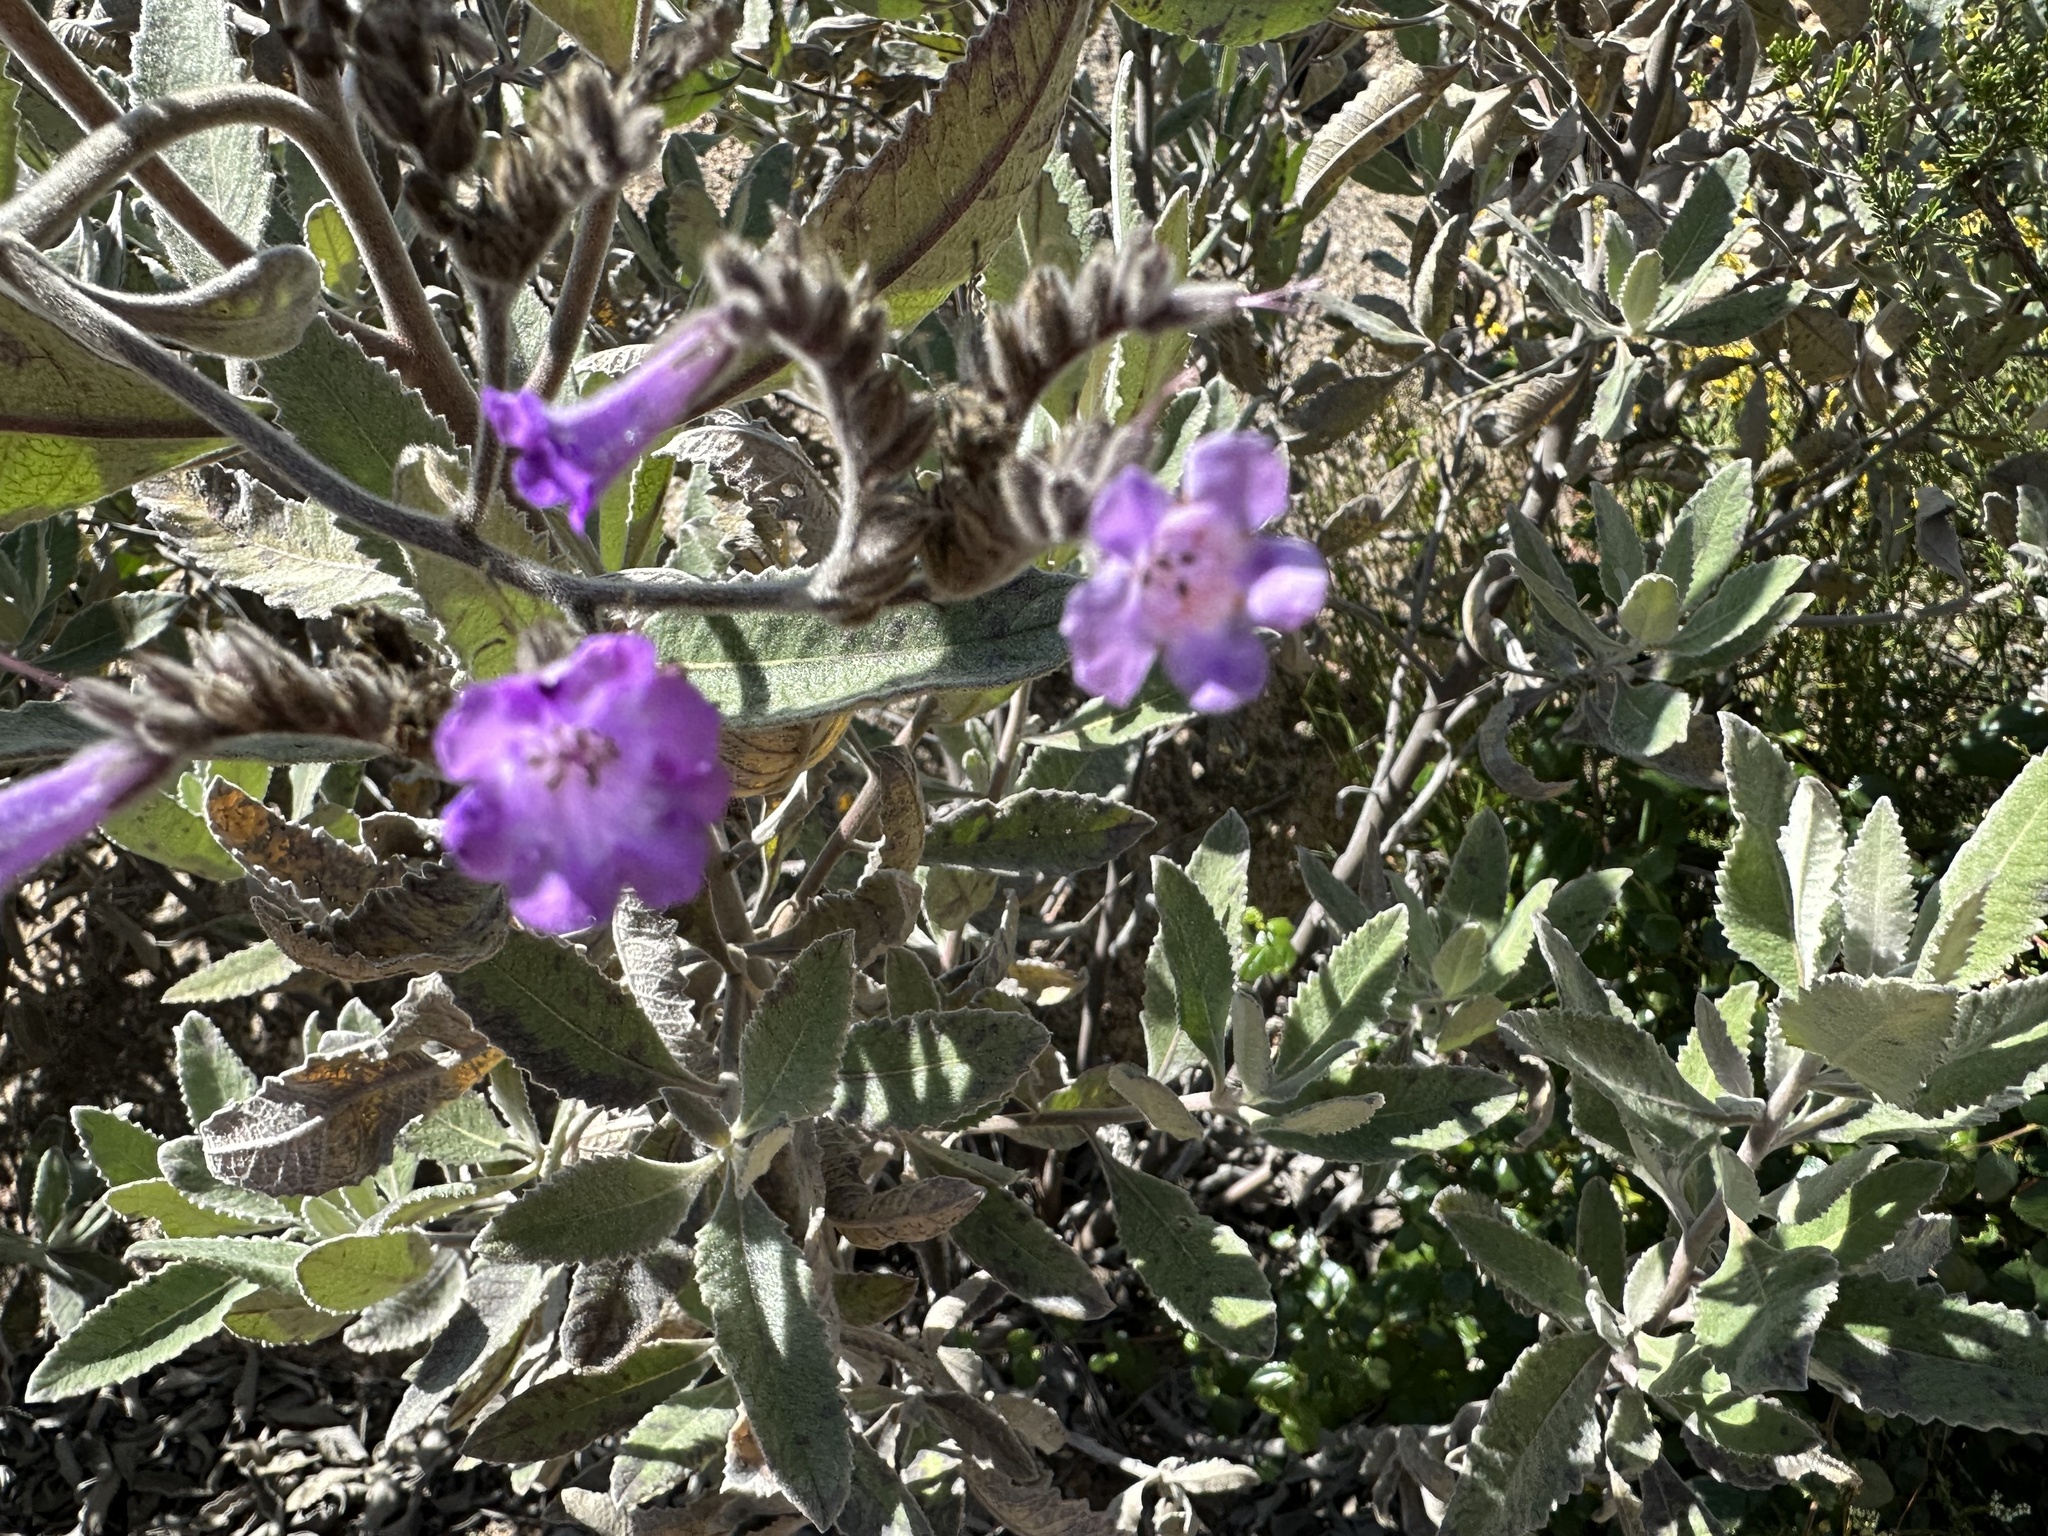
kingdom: Plantae
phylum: Tracheophyta
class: Magnoliopsida
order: Boraginales
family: Namaceae
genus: Eriodictyon
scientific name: Eriodictyon crassifolium
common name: Thick-leaf yerba-santa
